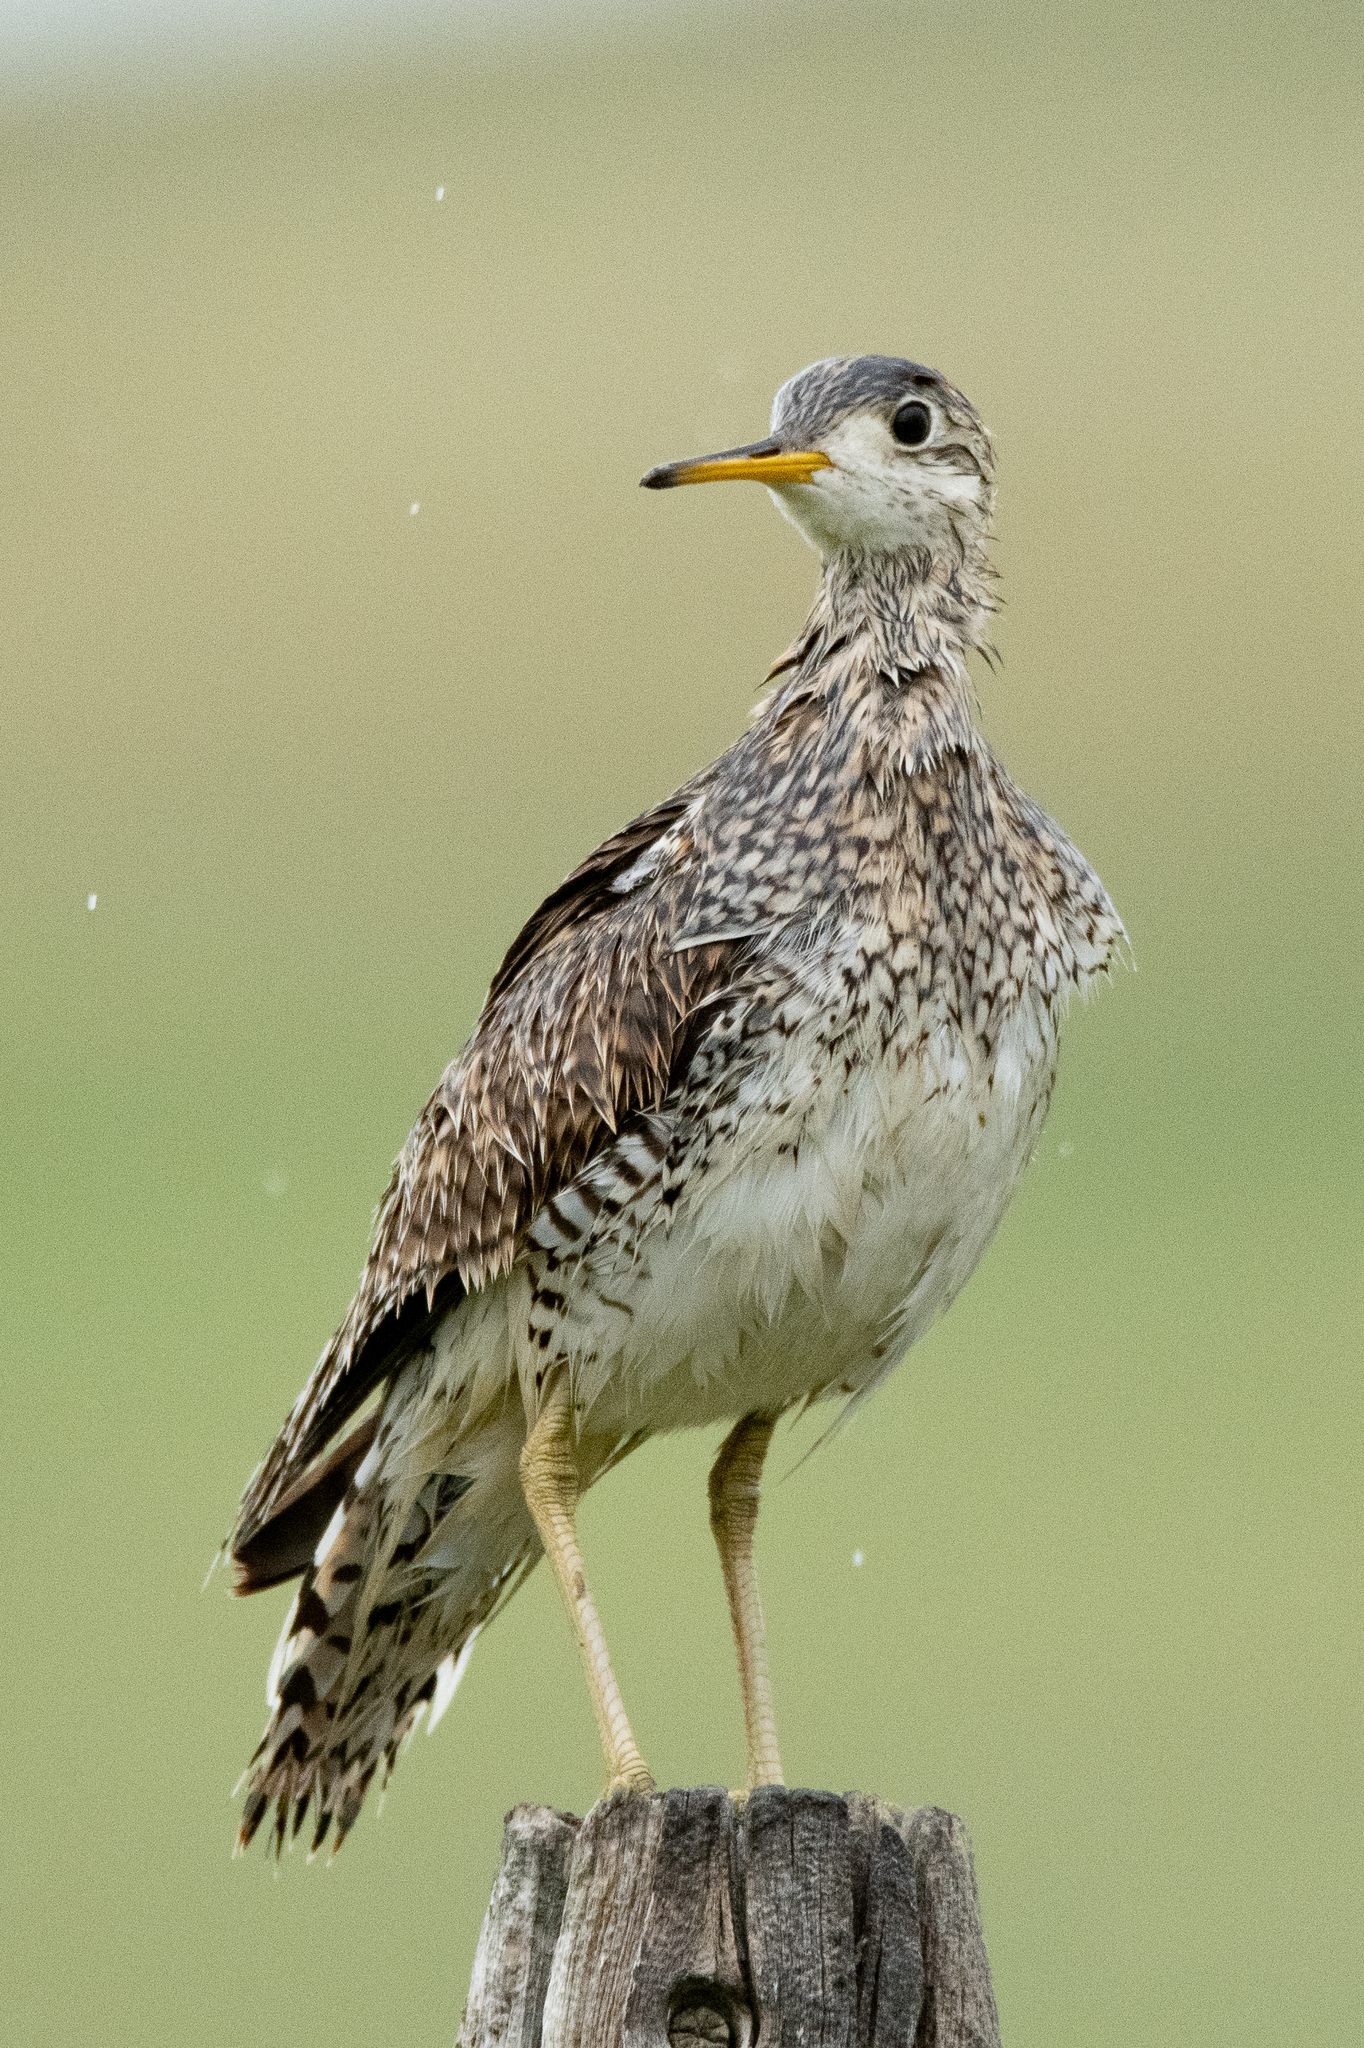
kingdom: Animalia
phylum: Chordata
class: Aves
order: Charadriiformes
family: Scolopacidae
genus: Bartramia
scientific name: Bartramia longicauda
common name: Upland sandpiper
